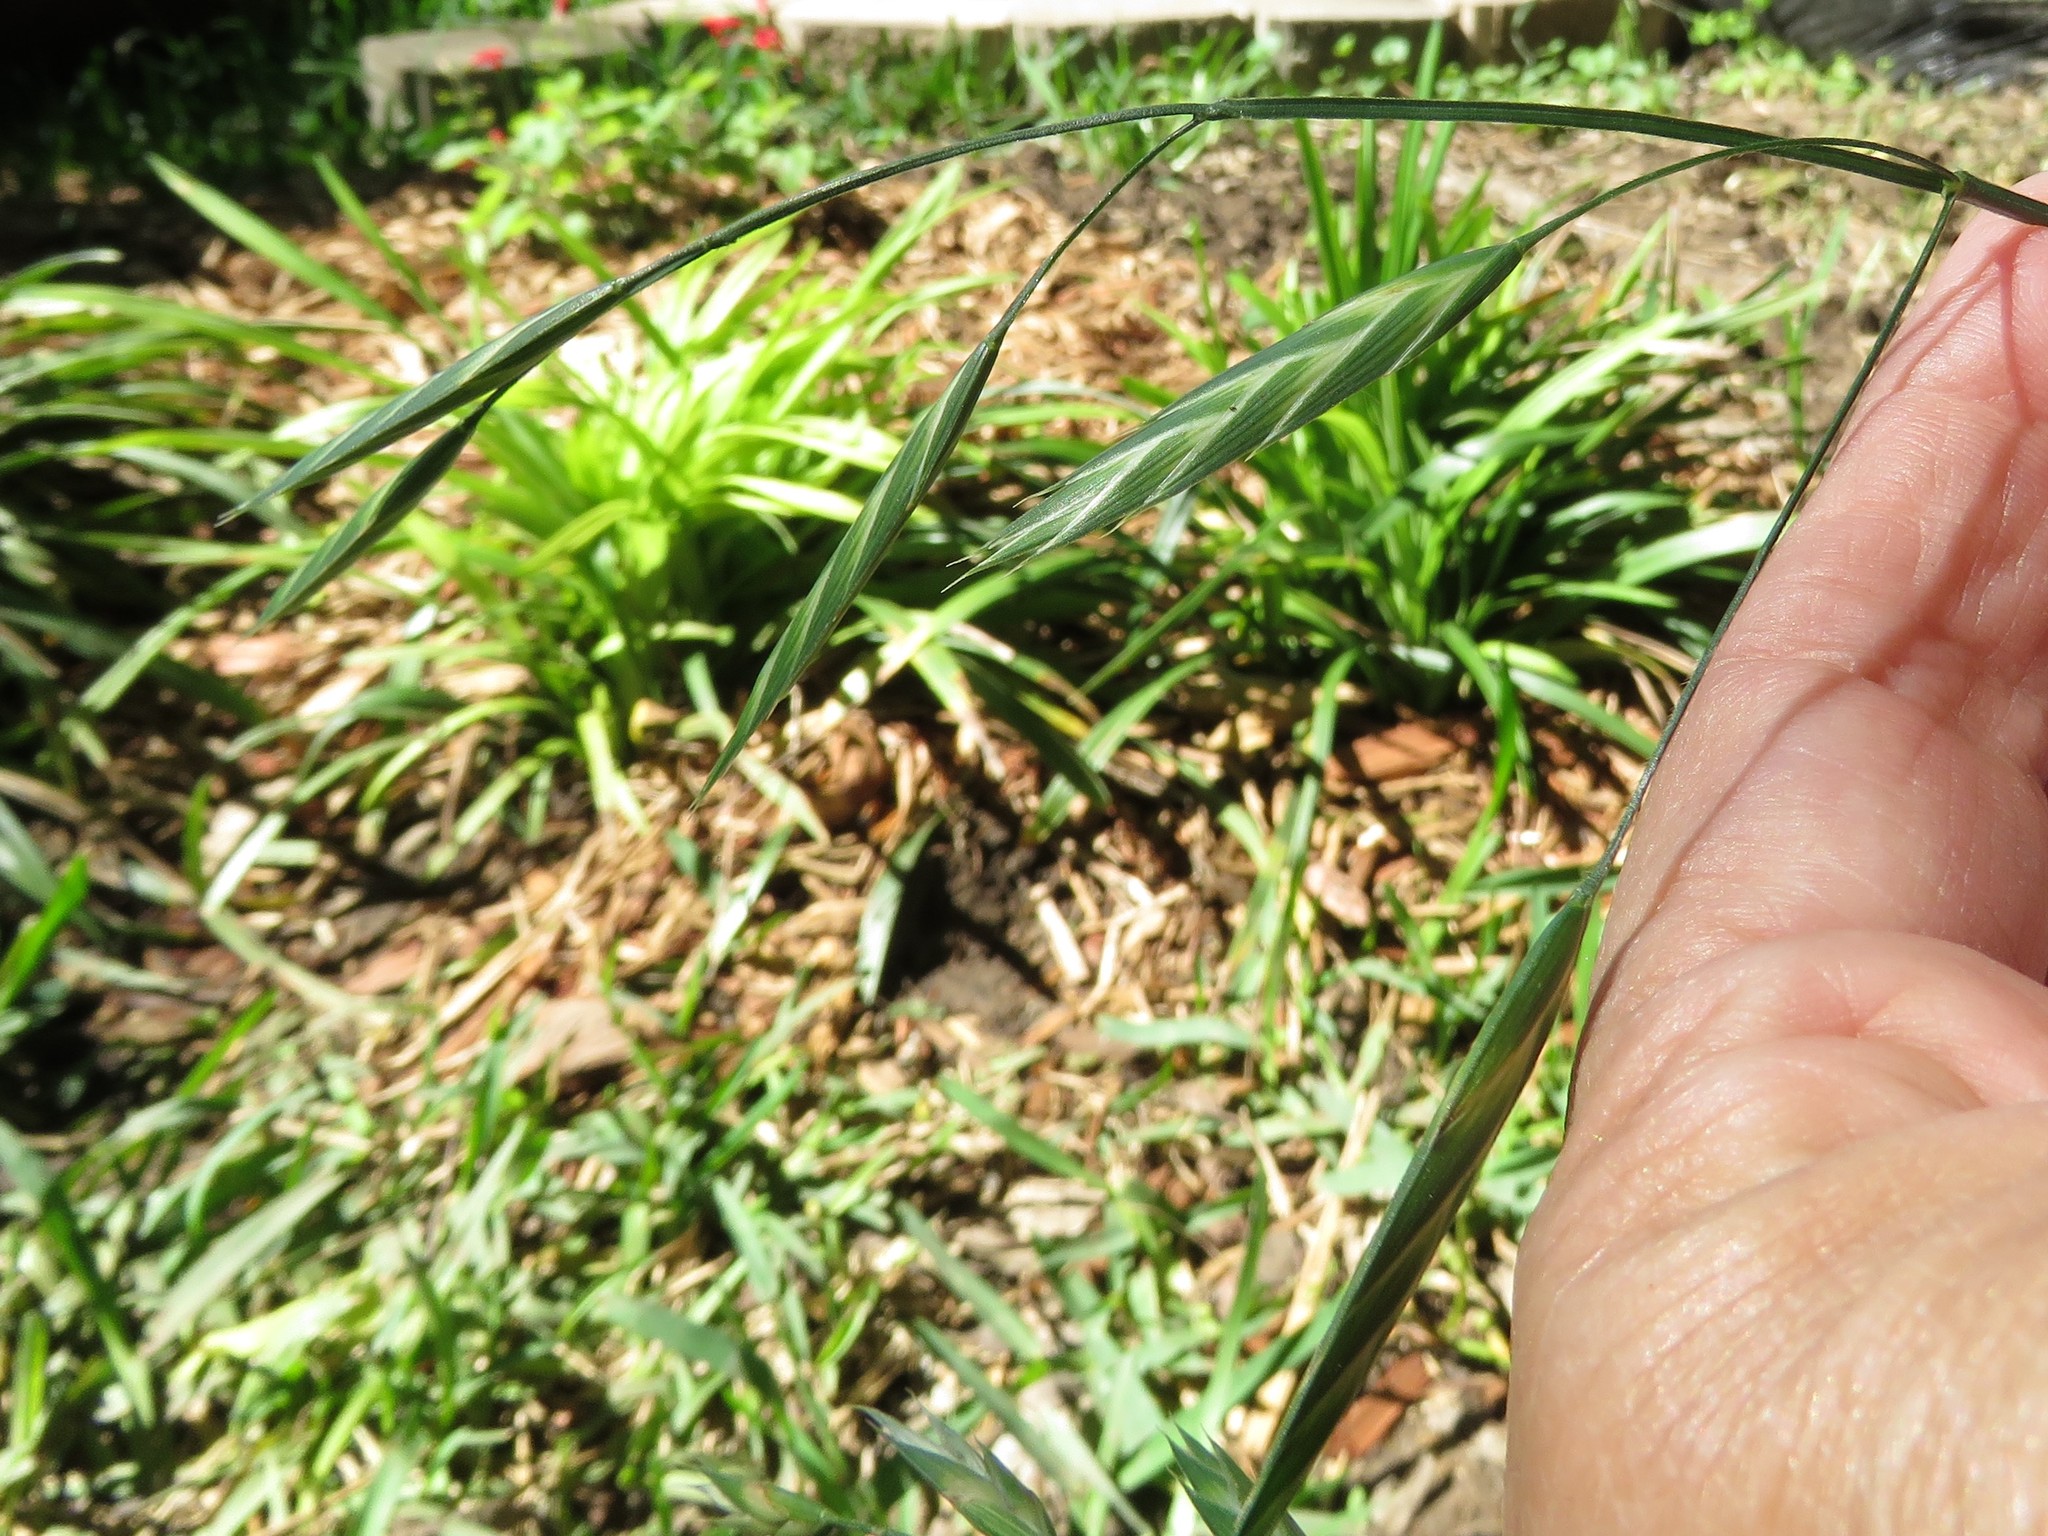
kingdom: Plantae
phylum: Tracheophyta
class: Liliopsida
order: Poales
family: Poaceae
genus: Bromus
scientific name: Bromus catharticus
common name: Rescuegrass
